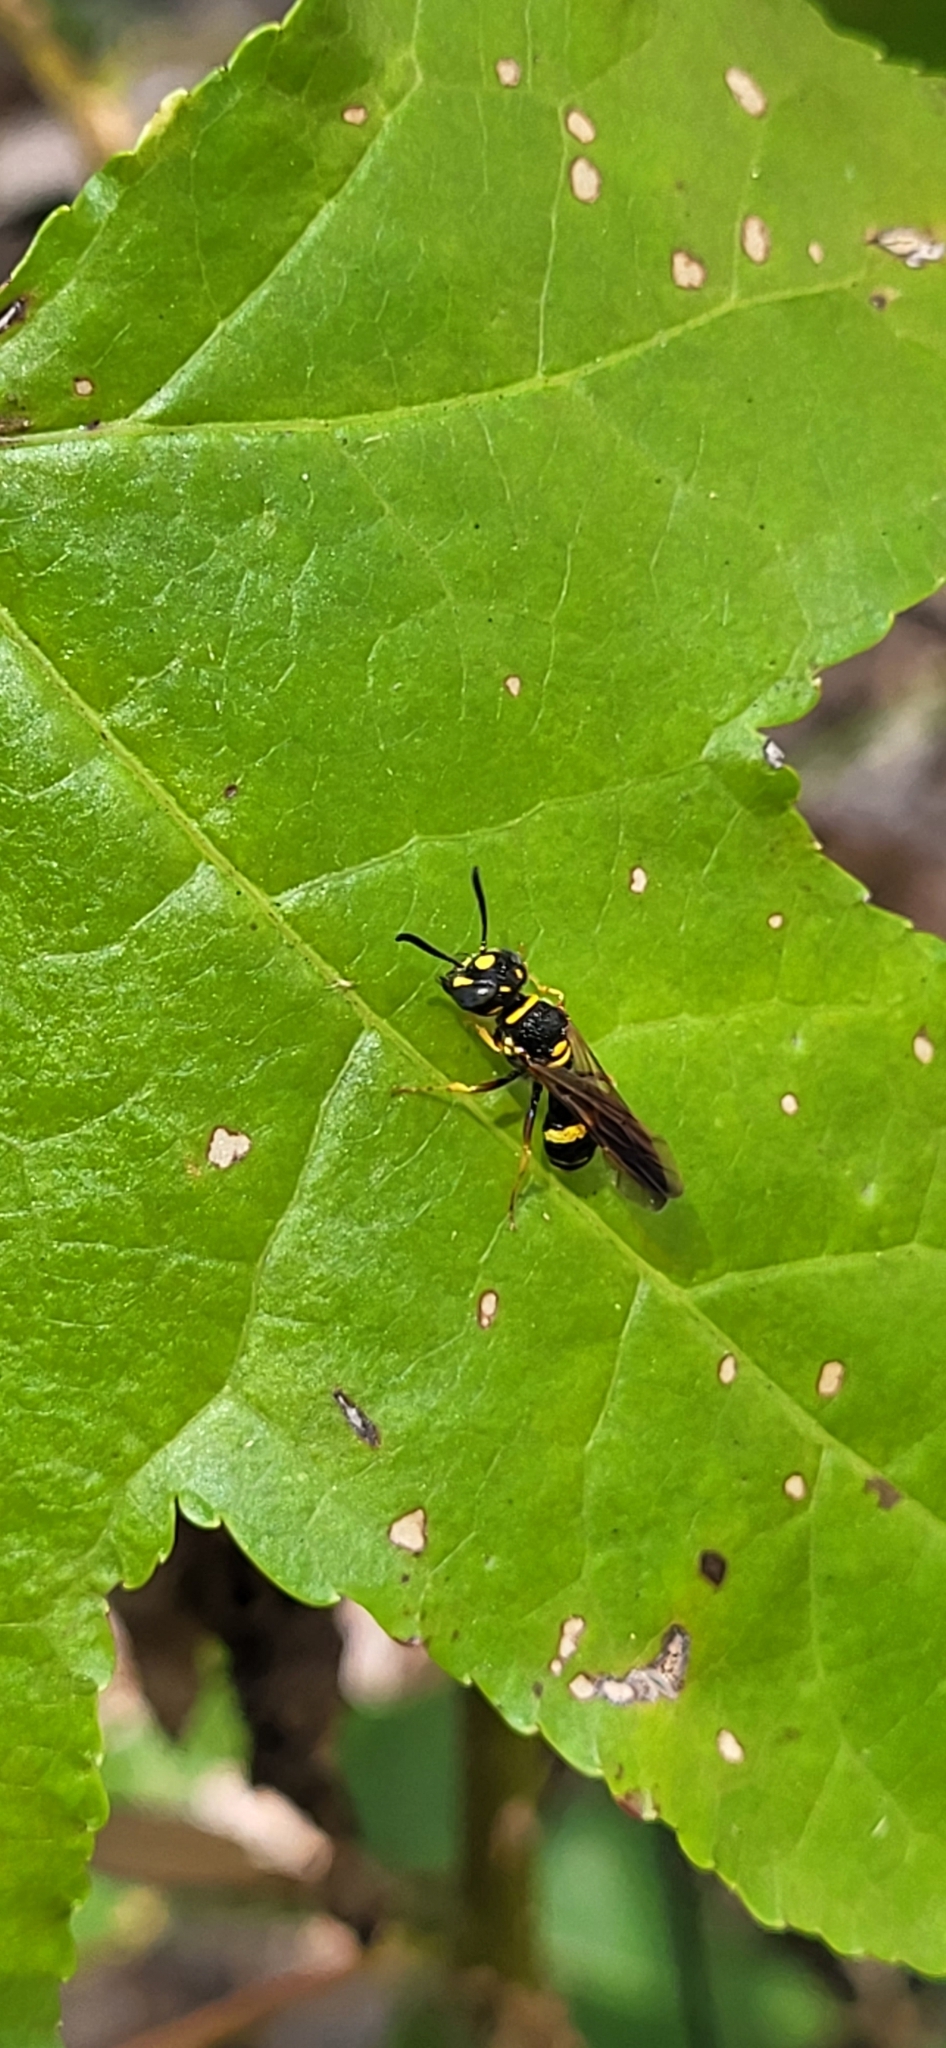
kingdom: Animalia
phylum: Arthropoda
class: Insecta
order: Hymenoptera
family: Crabronidae
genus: Philanthus
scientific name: Philanthus gibbosus
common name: Humped beewolf
